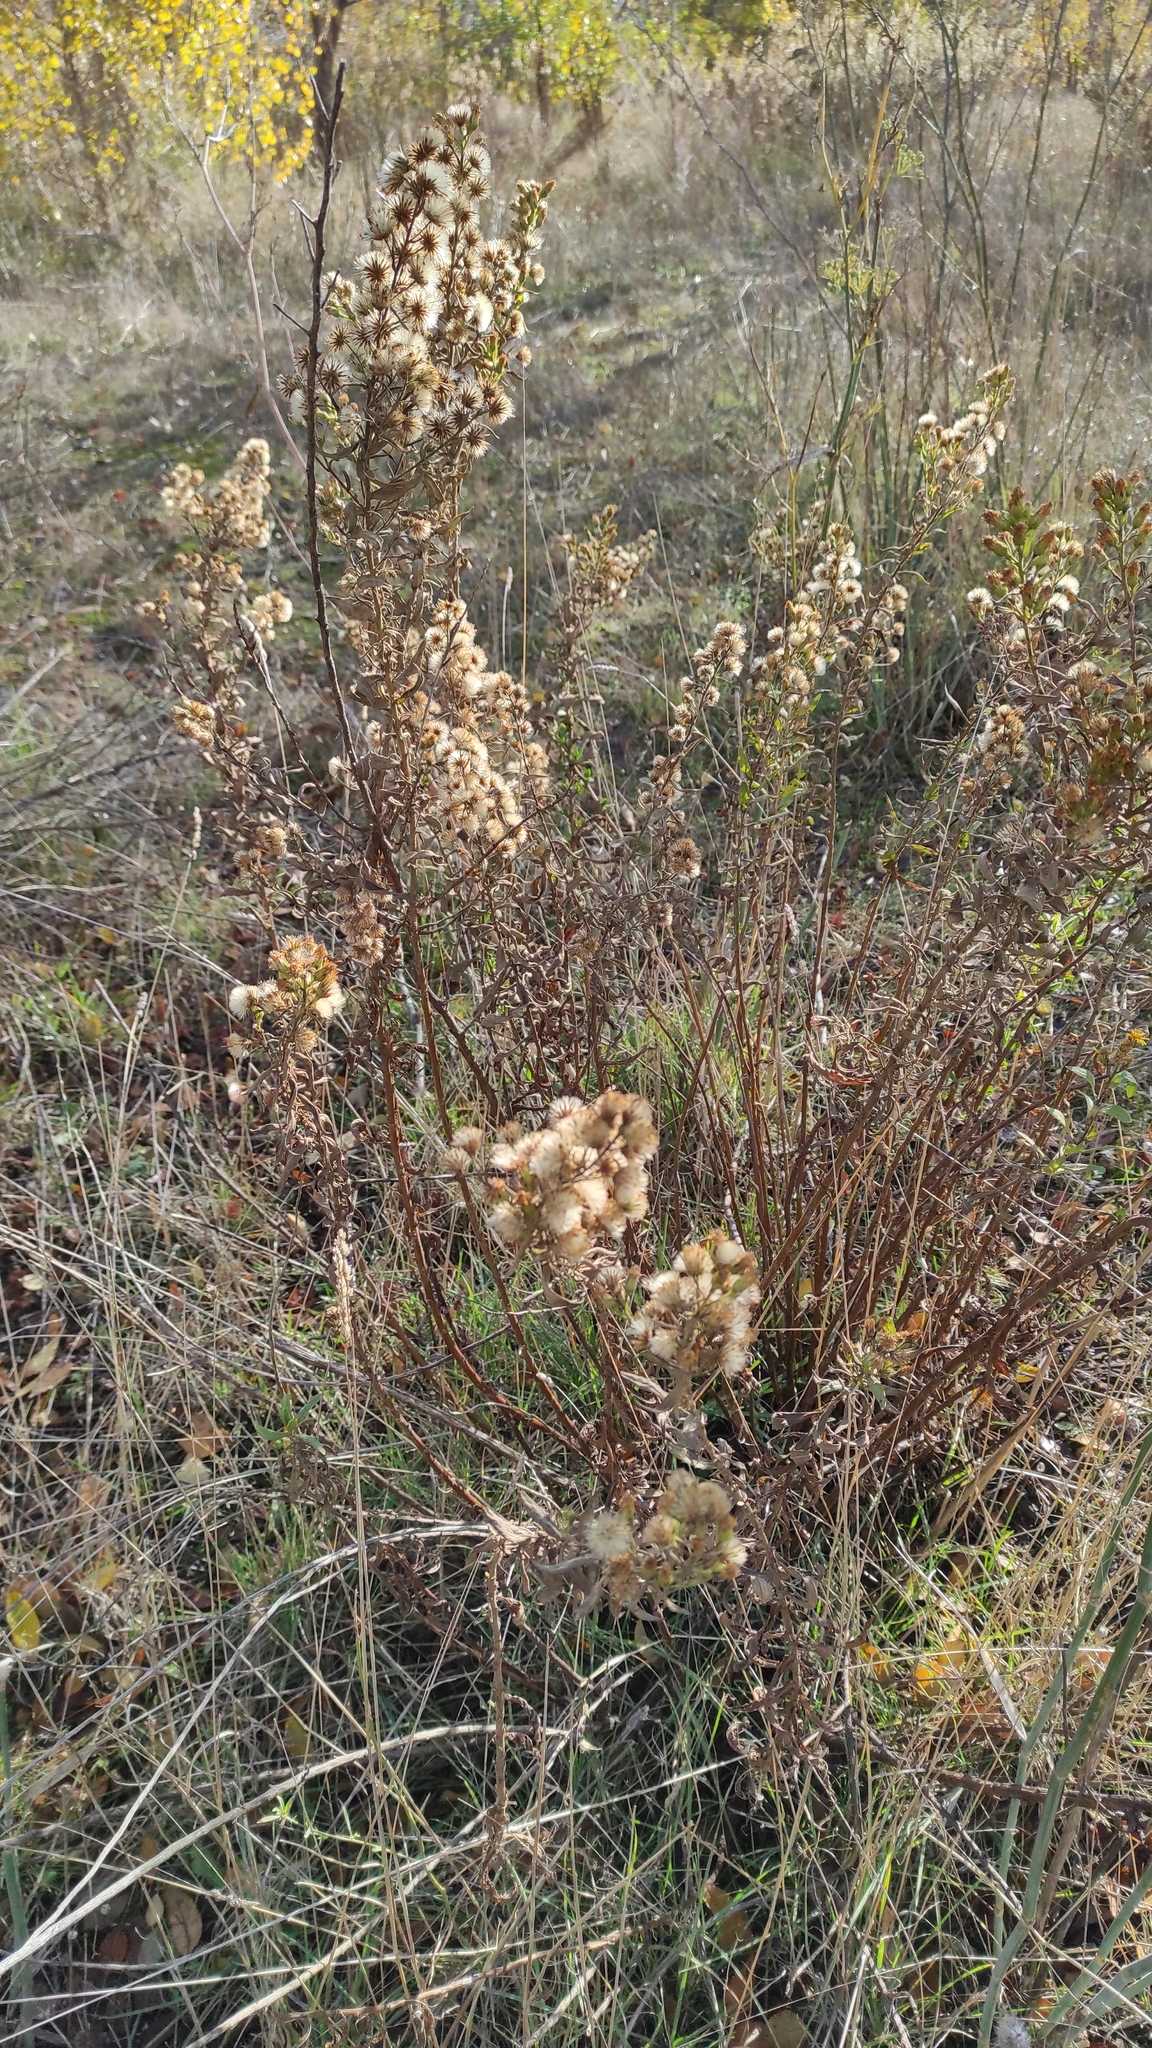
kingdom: Plantae
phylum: Tracheophyta
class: Magnoliopsida
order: Asterales
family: Asteraceae
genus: Dittrichia
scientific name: Dittrichia viscosa
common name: Woody fleabane
